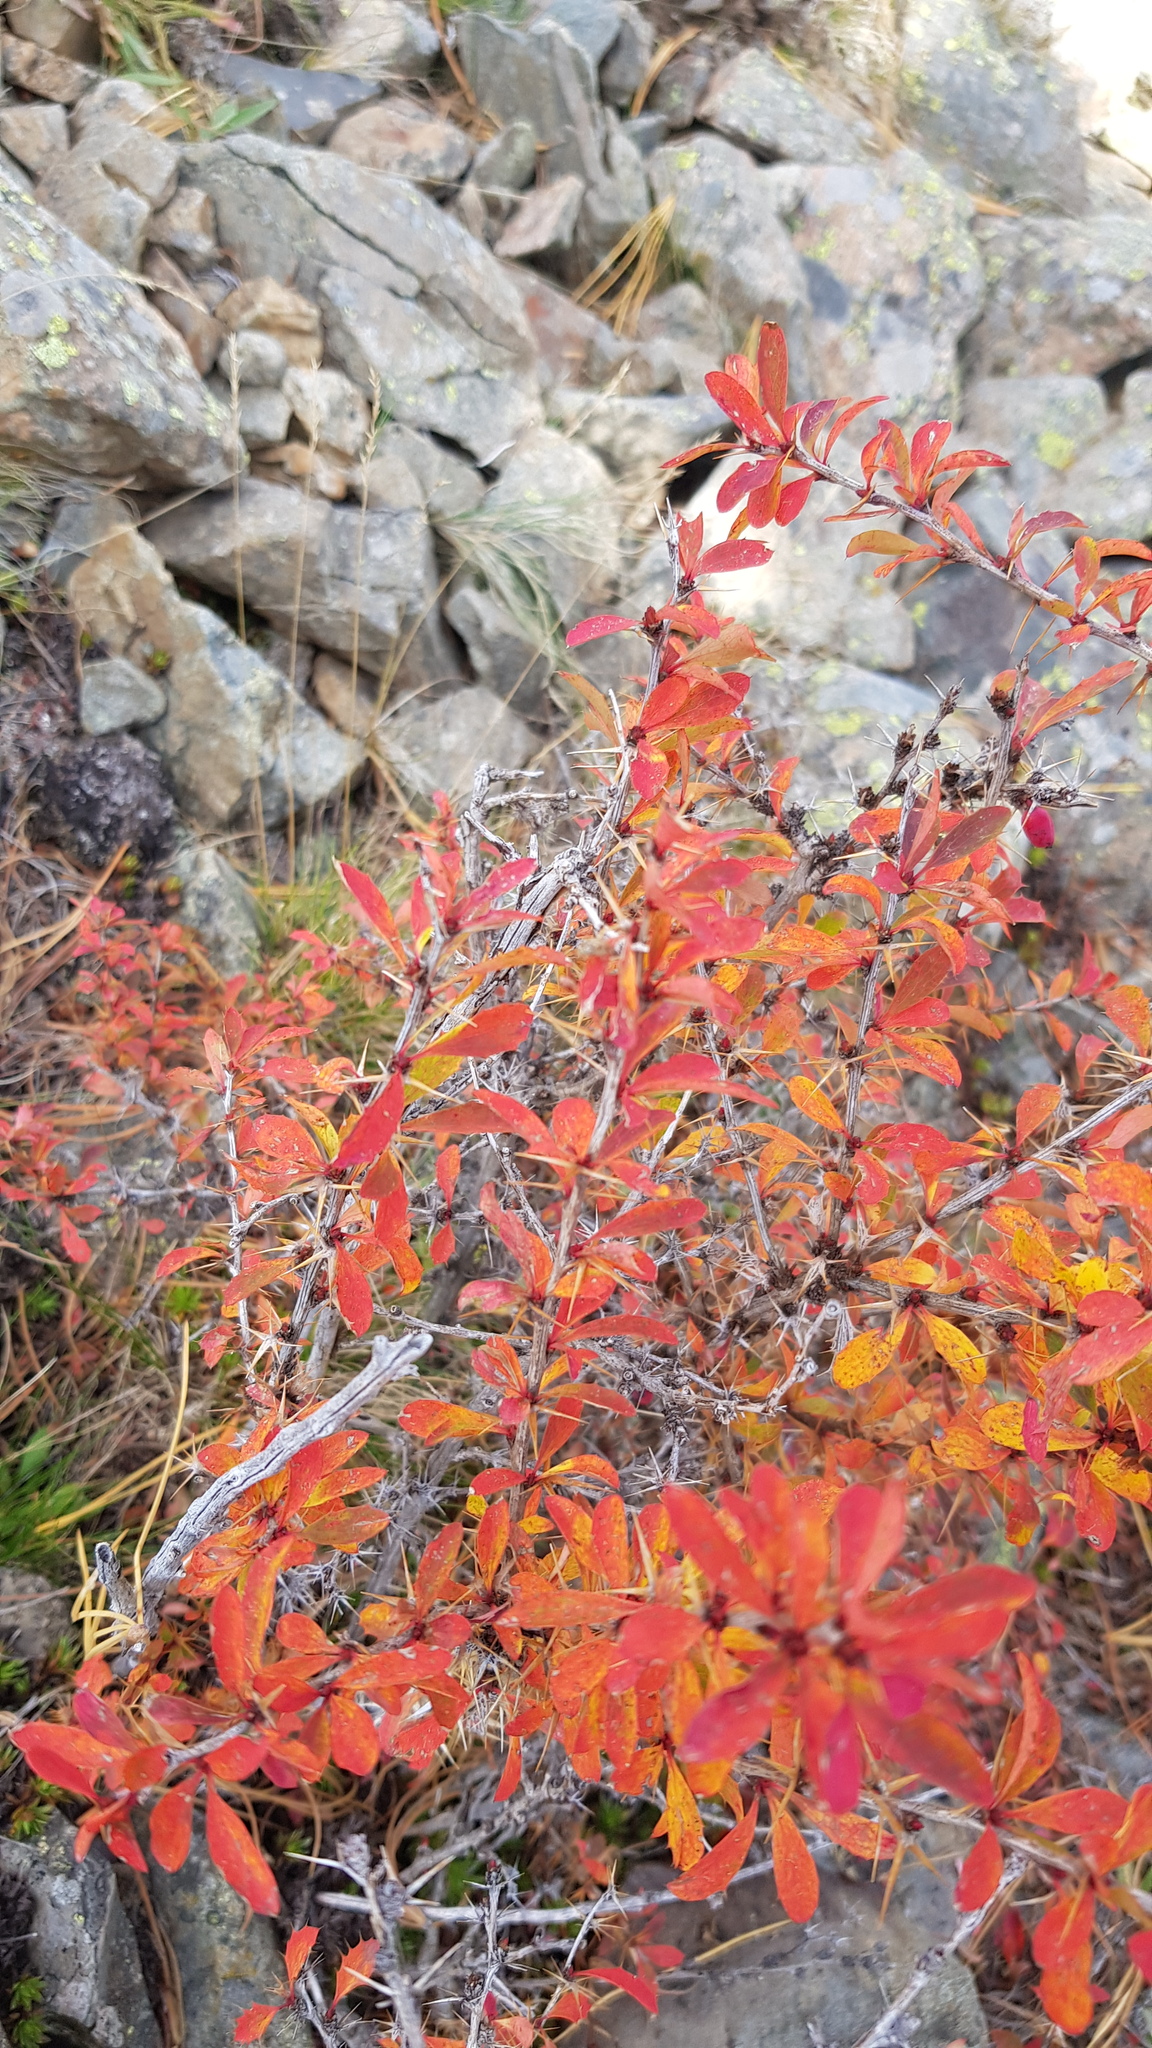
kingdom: Plantae
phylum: Tracheophyta
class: Magnoliopsida
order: Ranunculales
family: Berberidaceae
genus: Berberis
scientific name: Berberis sibirica
